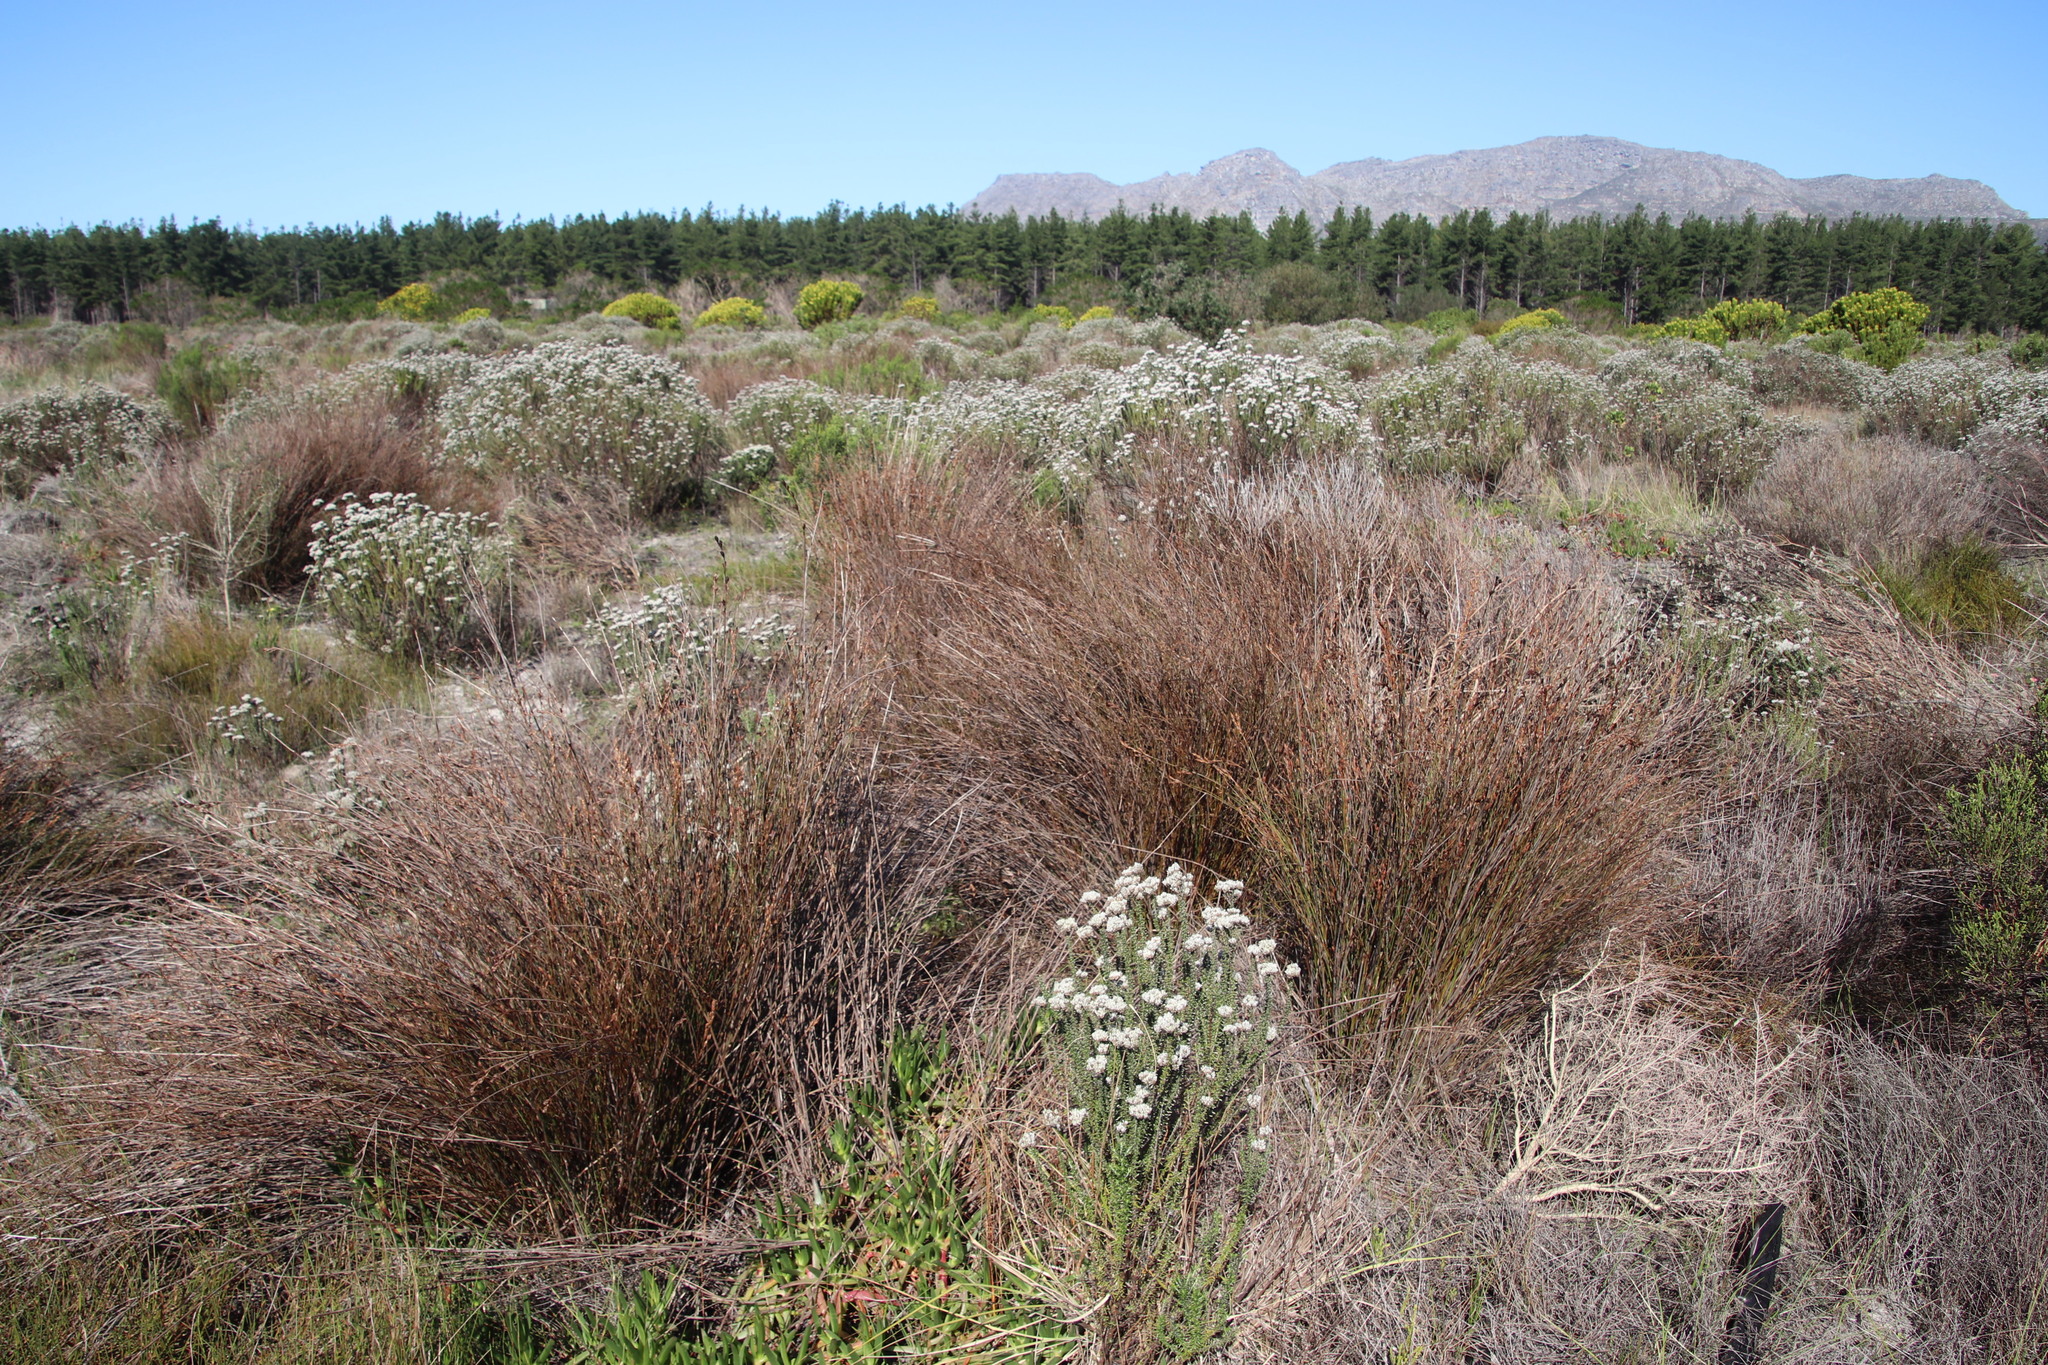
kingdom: Plantae
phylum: Tracheophyta
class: Liliopsida
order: Poales
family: Restionaceae
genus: Restio
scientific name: Restio bifurcus
